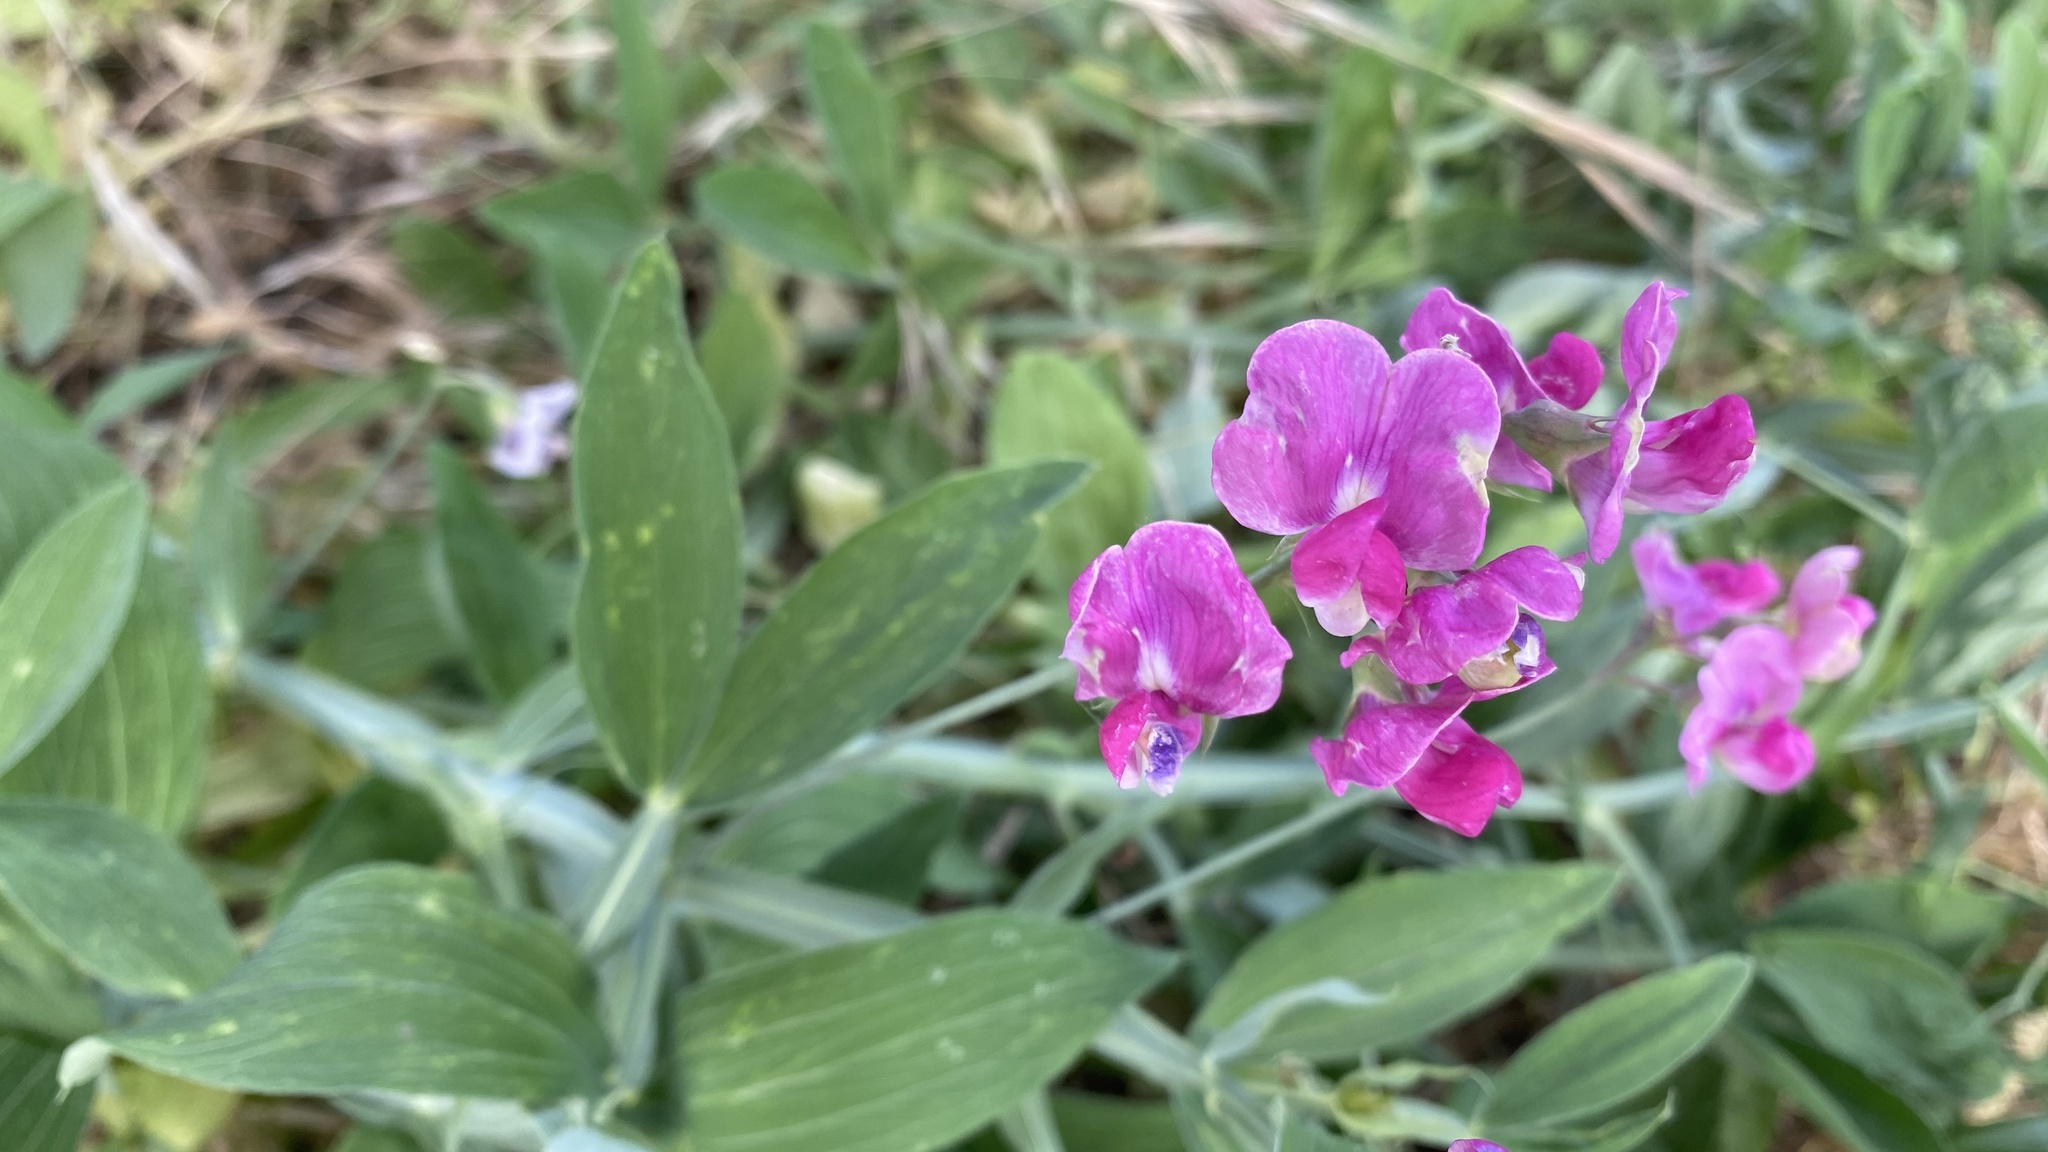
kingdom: Plantae
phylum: Tracheophyta
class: Magnoliopsida
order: Fabales
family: Fabaceae
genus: Lathyrus
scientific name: Lathyrus latifolius
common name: Perennial pea
